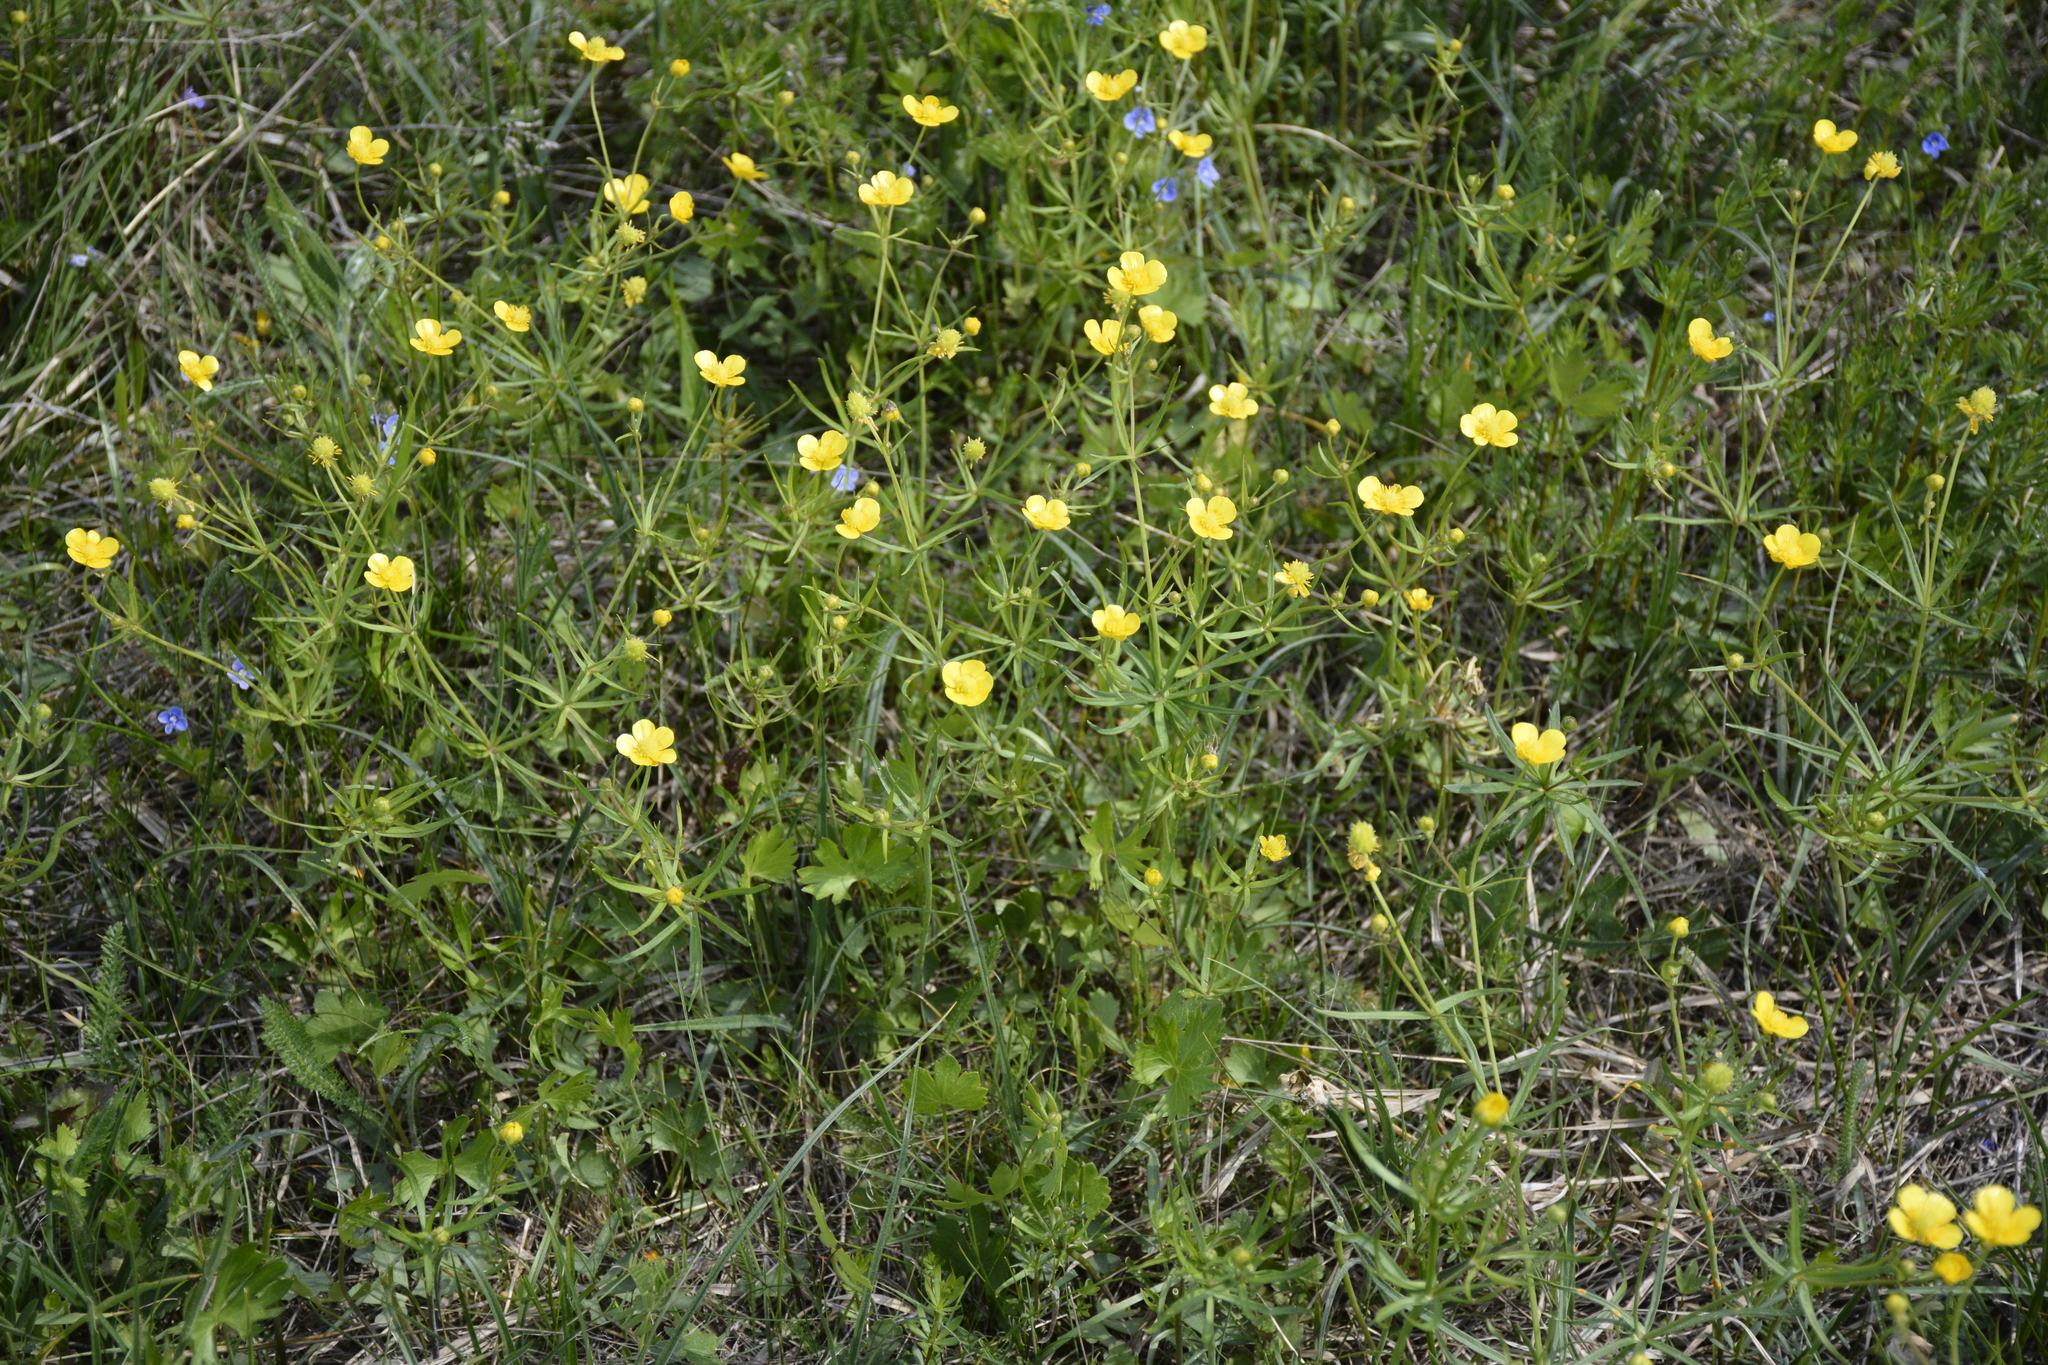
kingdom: Plantae
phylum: Tracheophyta
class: Magnoliopsida
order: Ranunculales
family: Ranunculaceae
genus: Ranunculus
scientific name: Ranunculus auricomus
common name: Goldilocks buttercup
